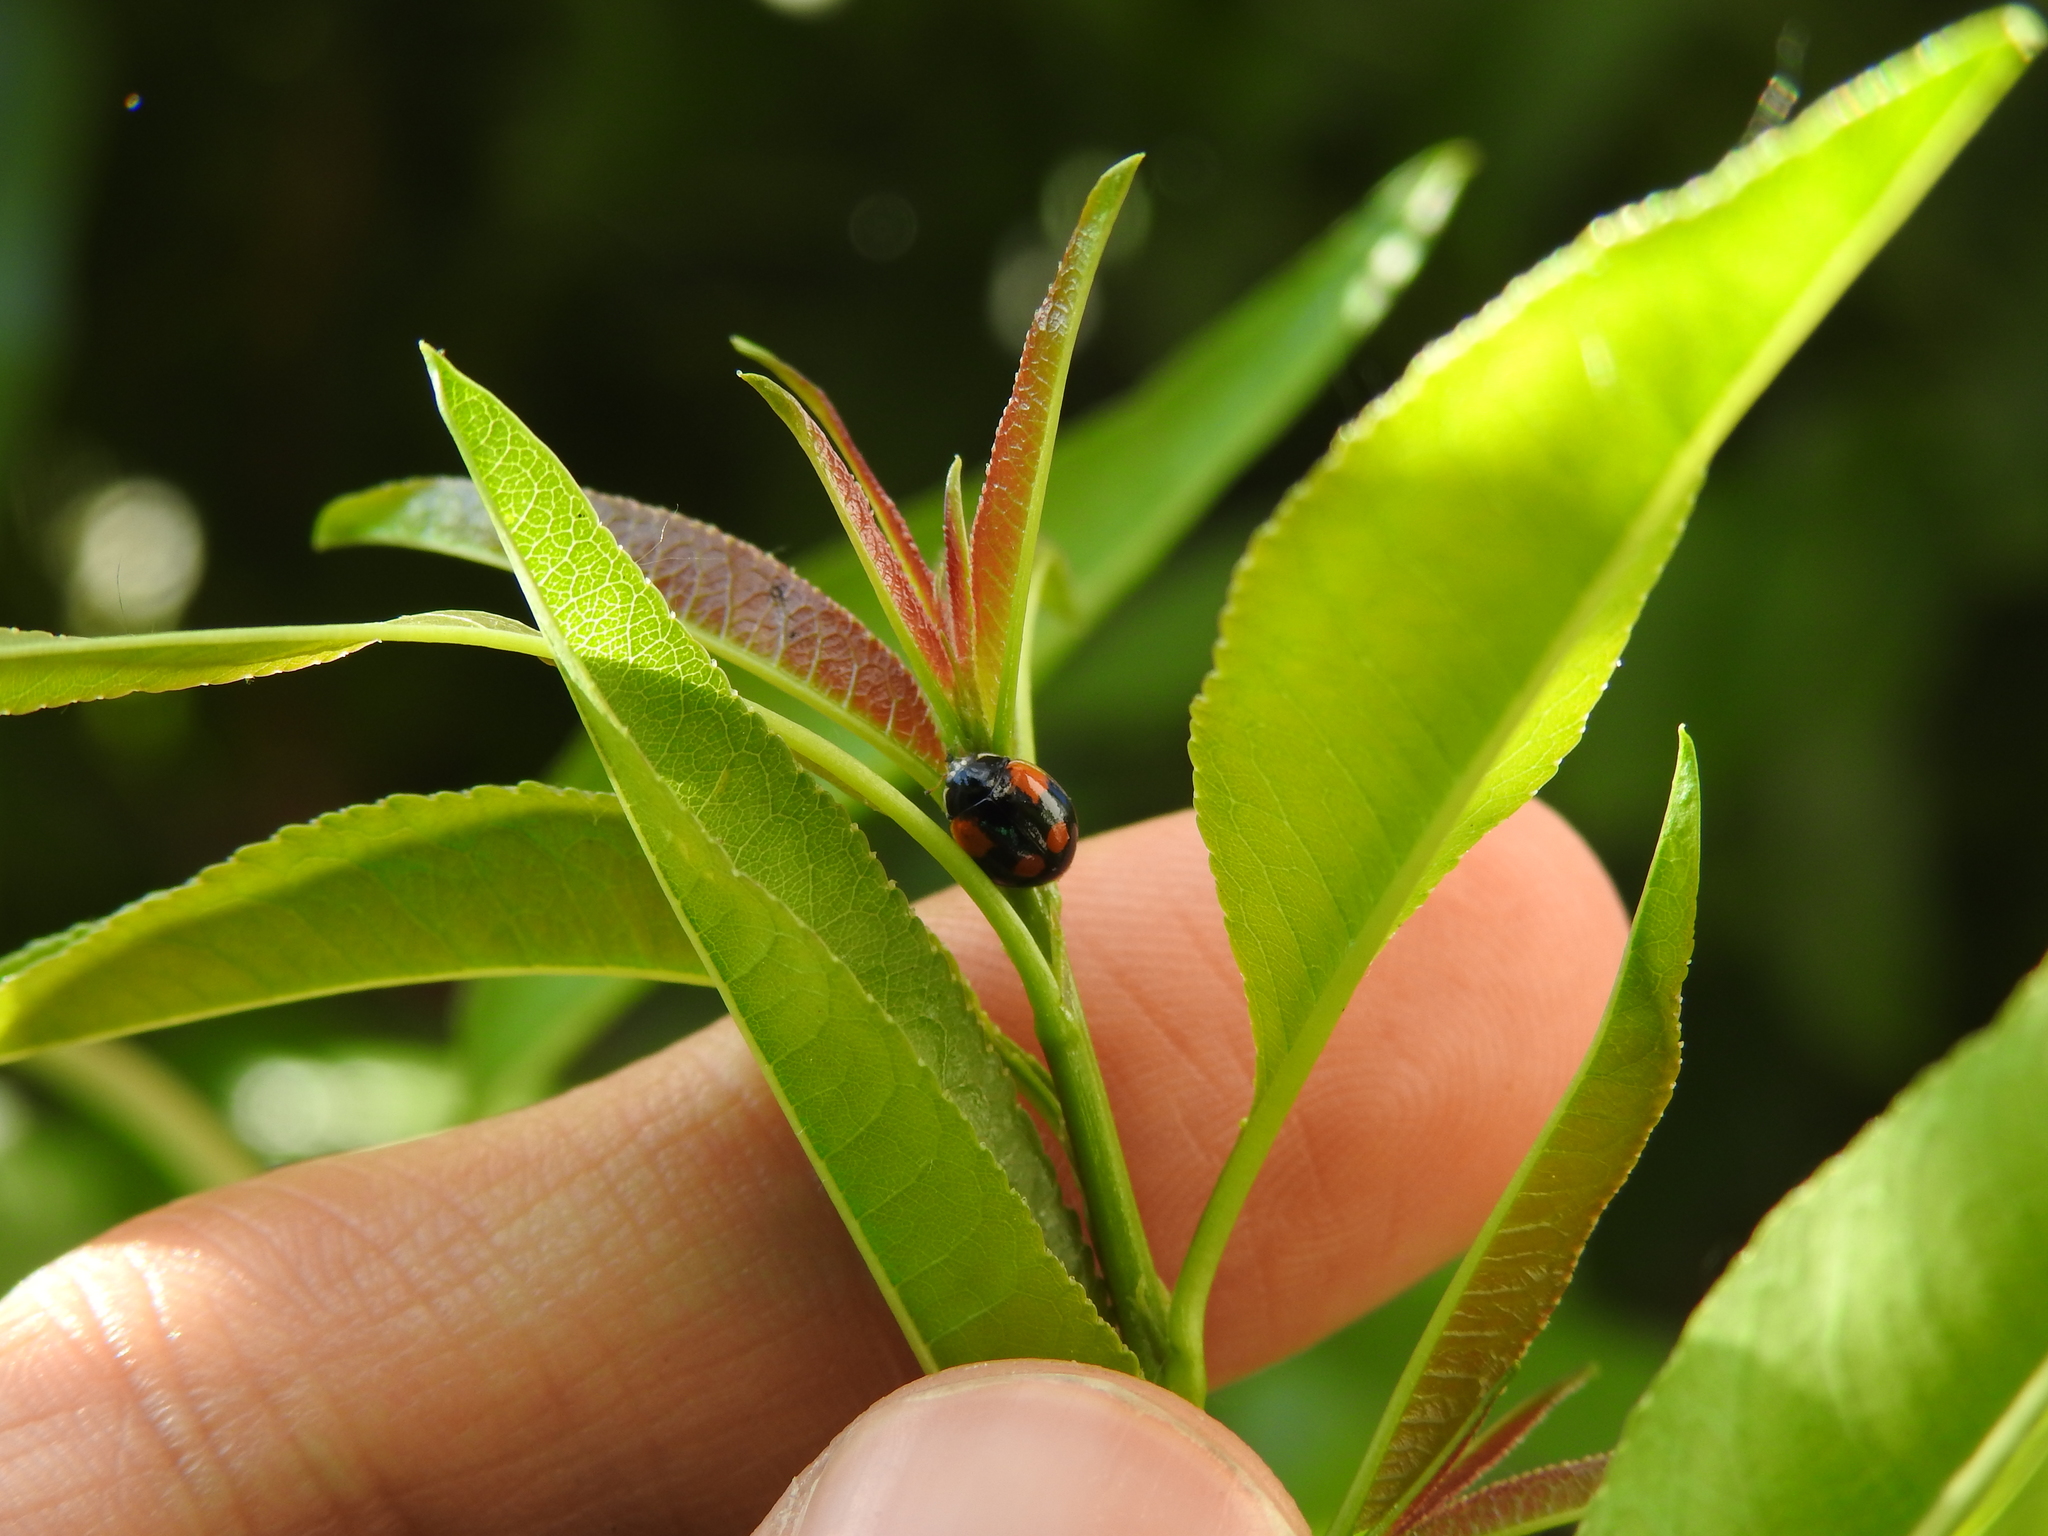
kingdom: Animalia
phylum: Arthropoda
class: Insecta
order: Coleoptera
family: Coccinellidae
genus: Adalia
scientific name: Adalia bipunctata
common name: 2-spot ladybird
